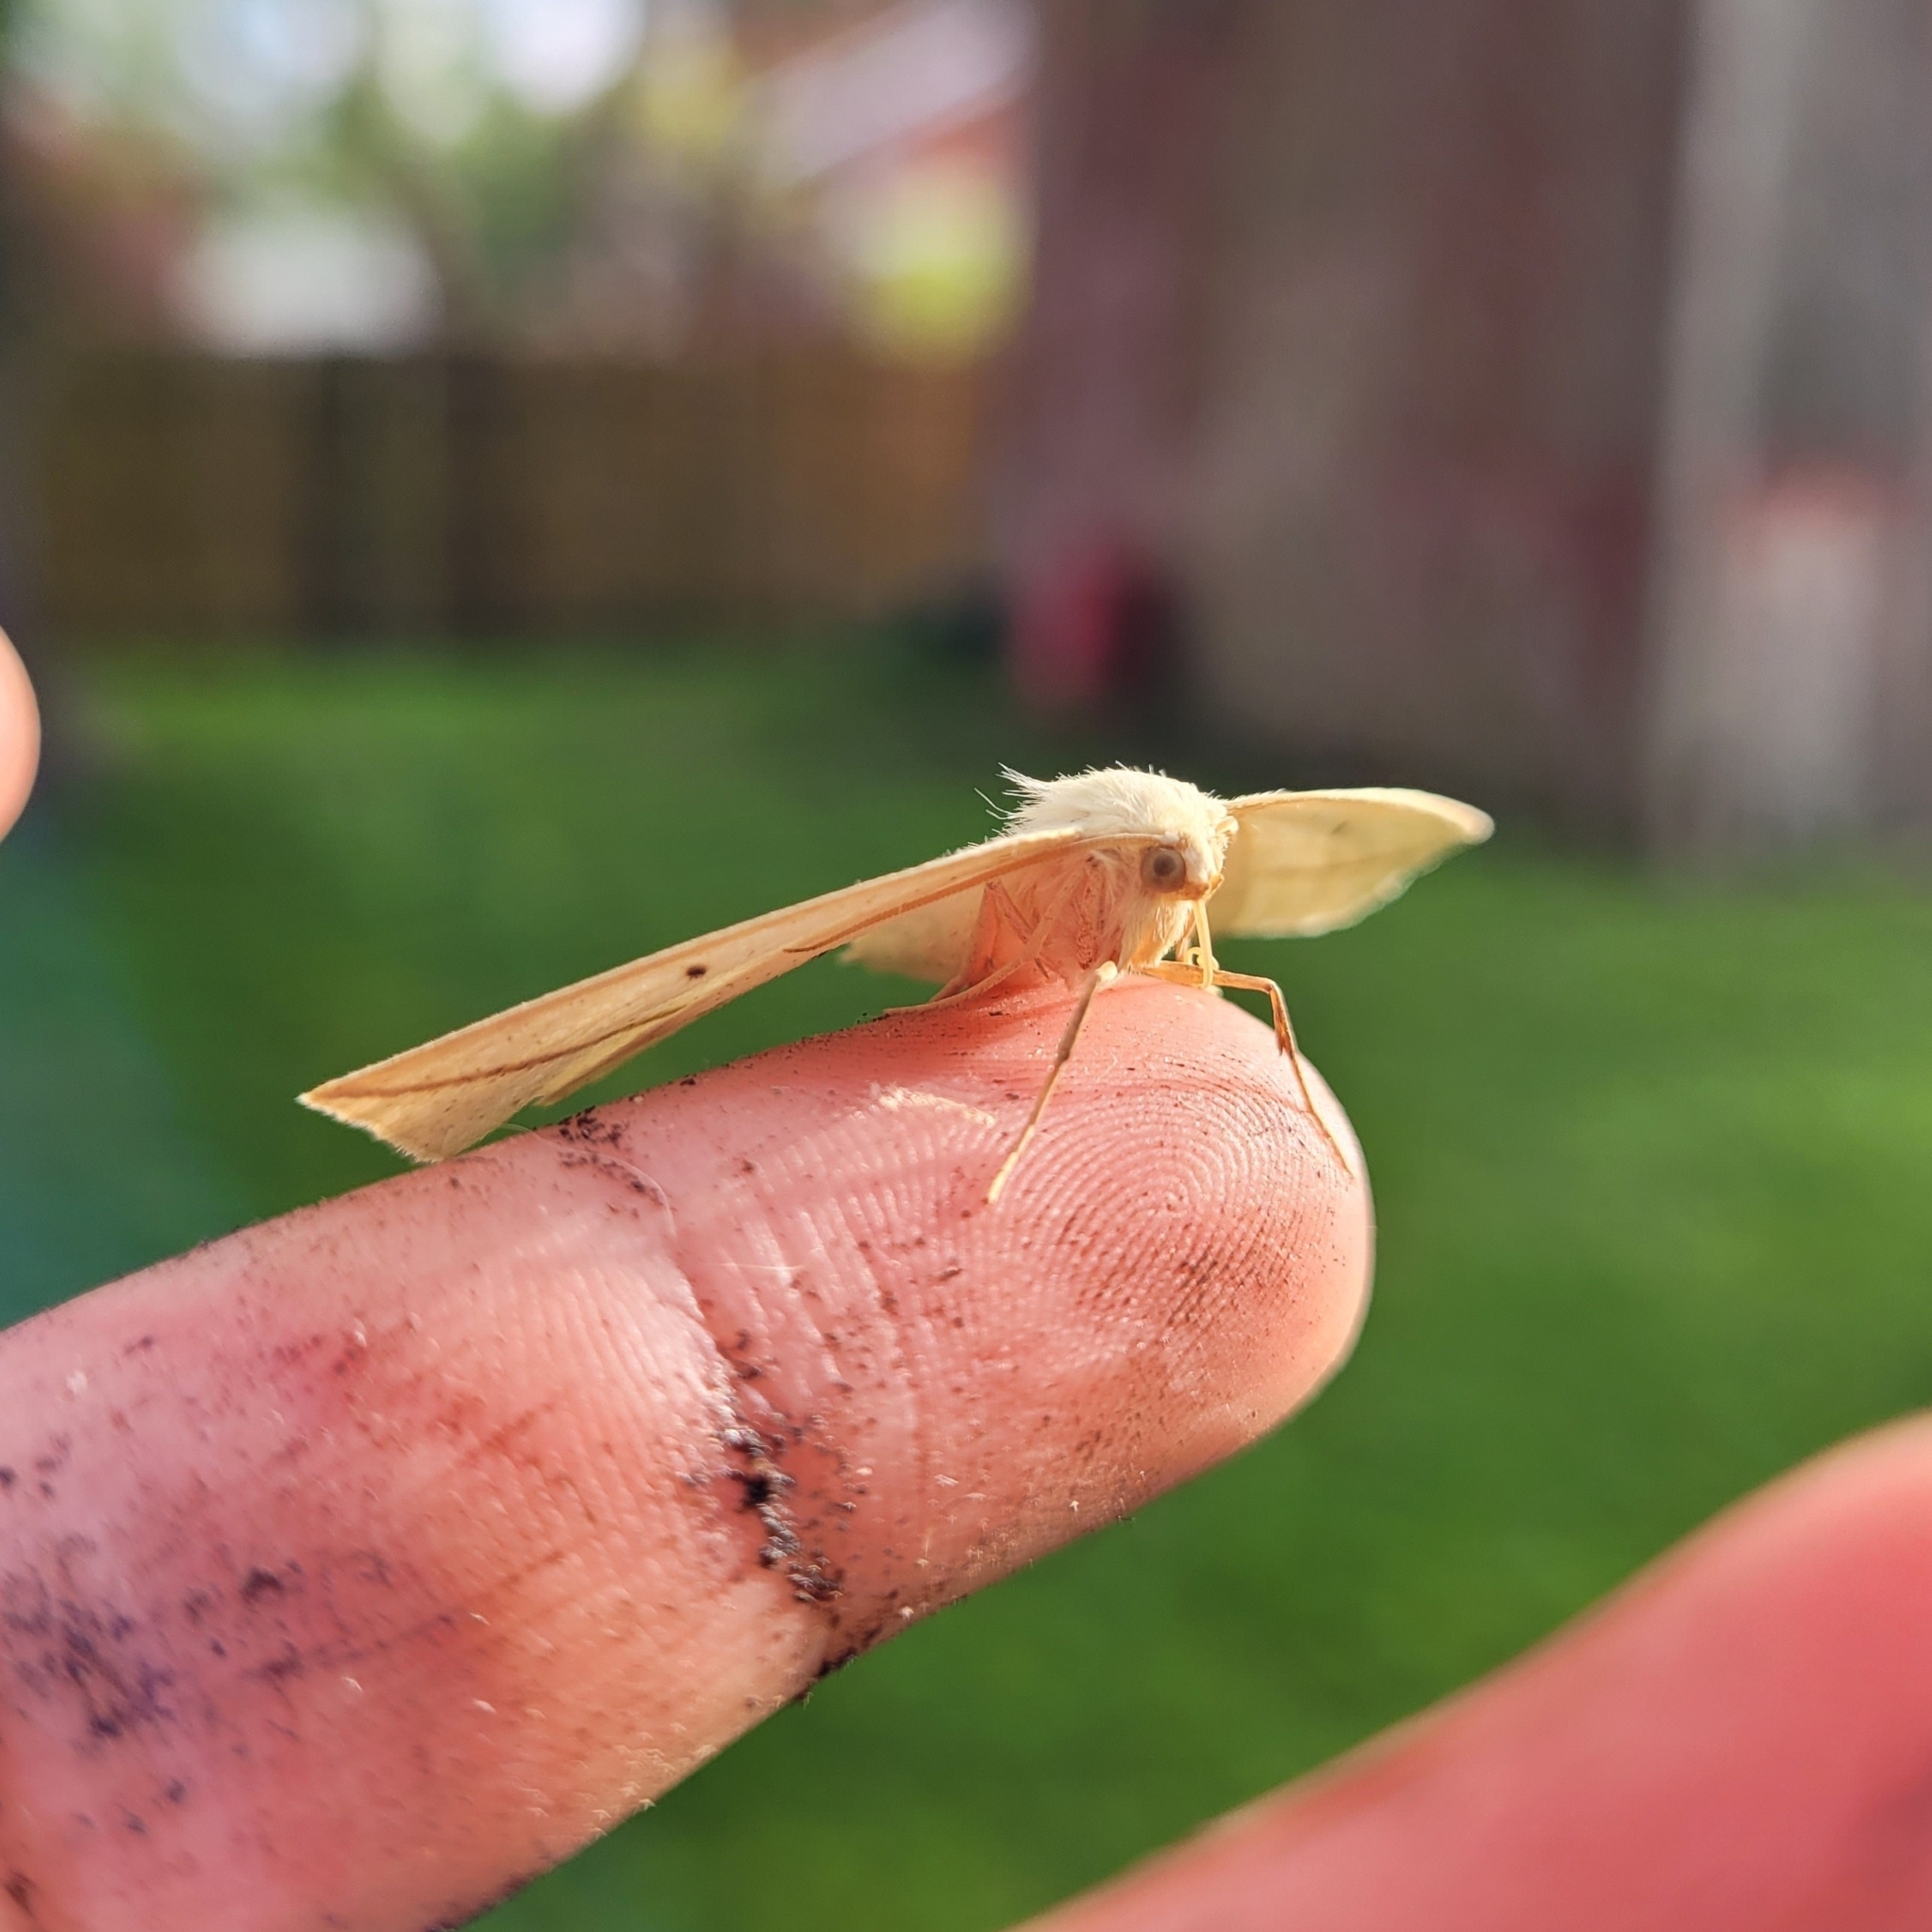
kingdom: Animalia
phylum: Arthropoda
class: Insecta
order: Lepidoptera
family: Geometridae
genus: Tetracis
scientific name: Tetracis crocallata
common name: Yellow slant-line
